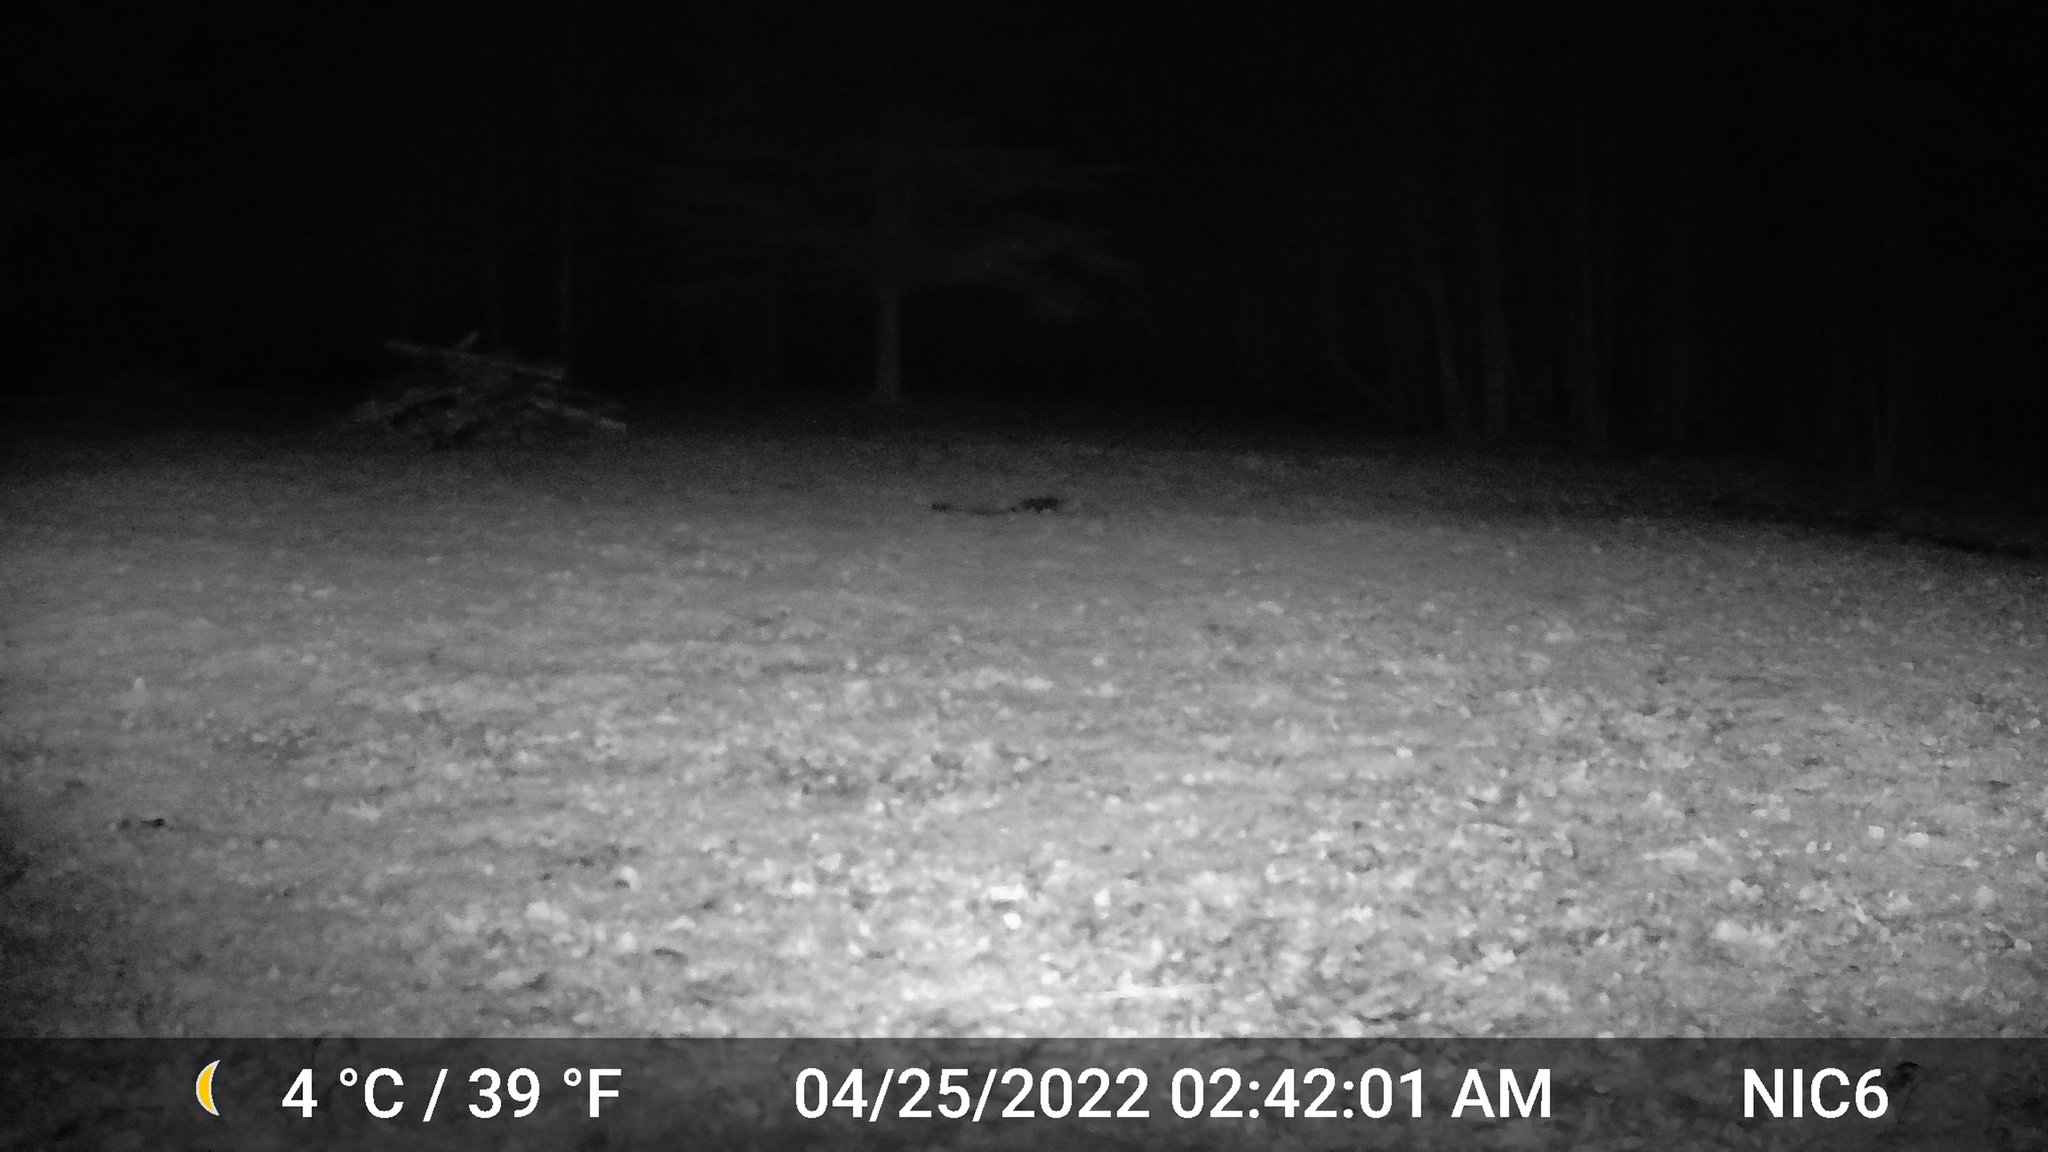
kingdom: Animalia
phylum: Chordata
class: Mammalia
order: Carnivora
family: Procyonidae
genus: Procyon
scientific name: Procyon lotor
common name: Raccoon
